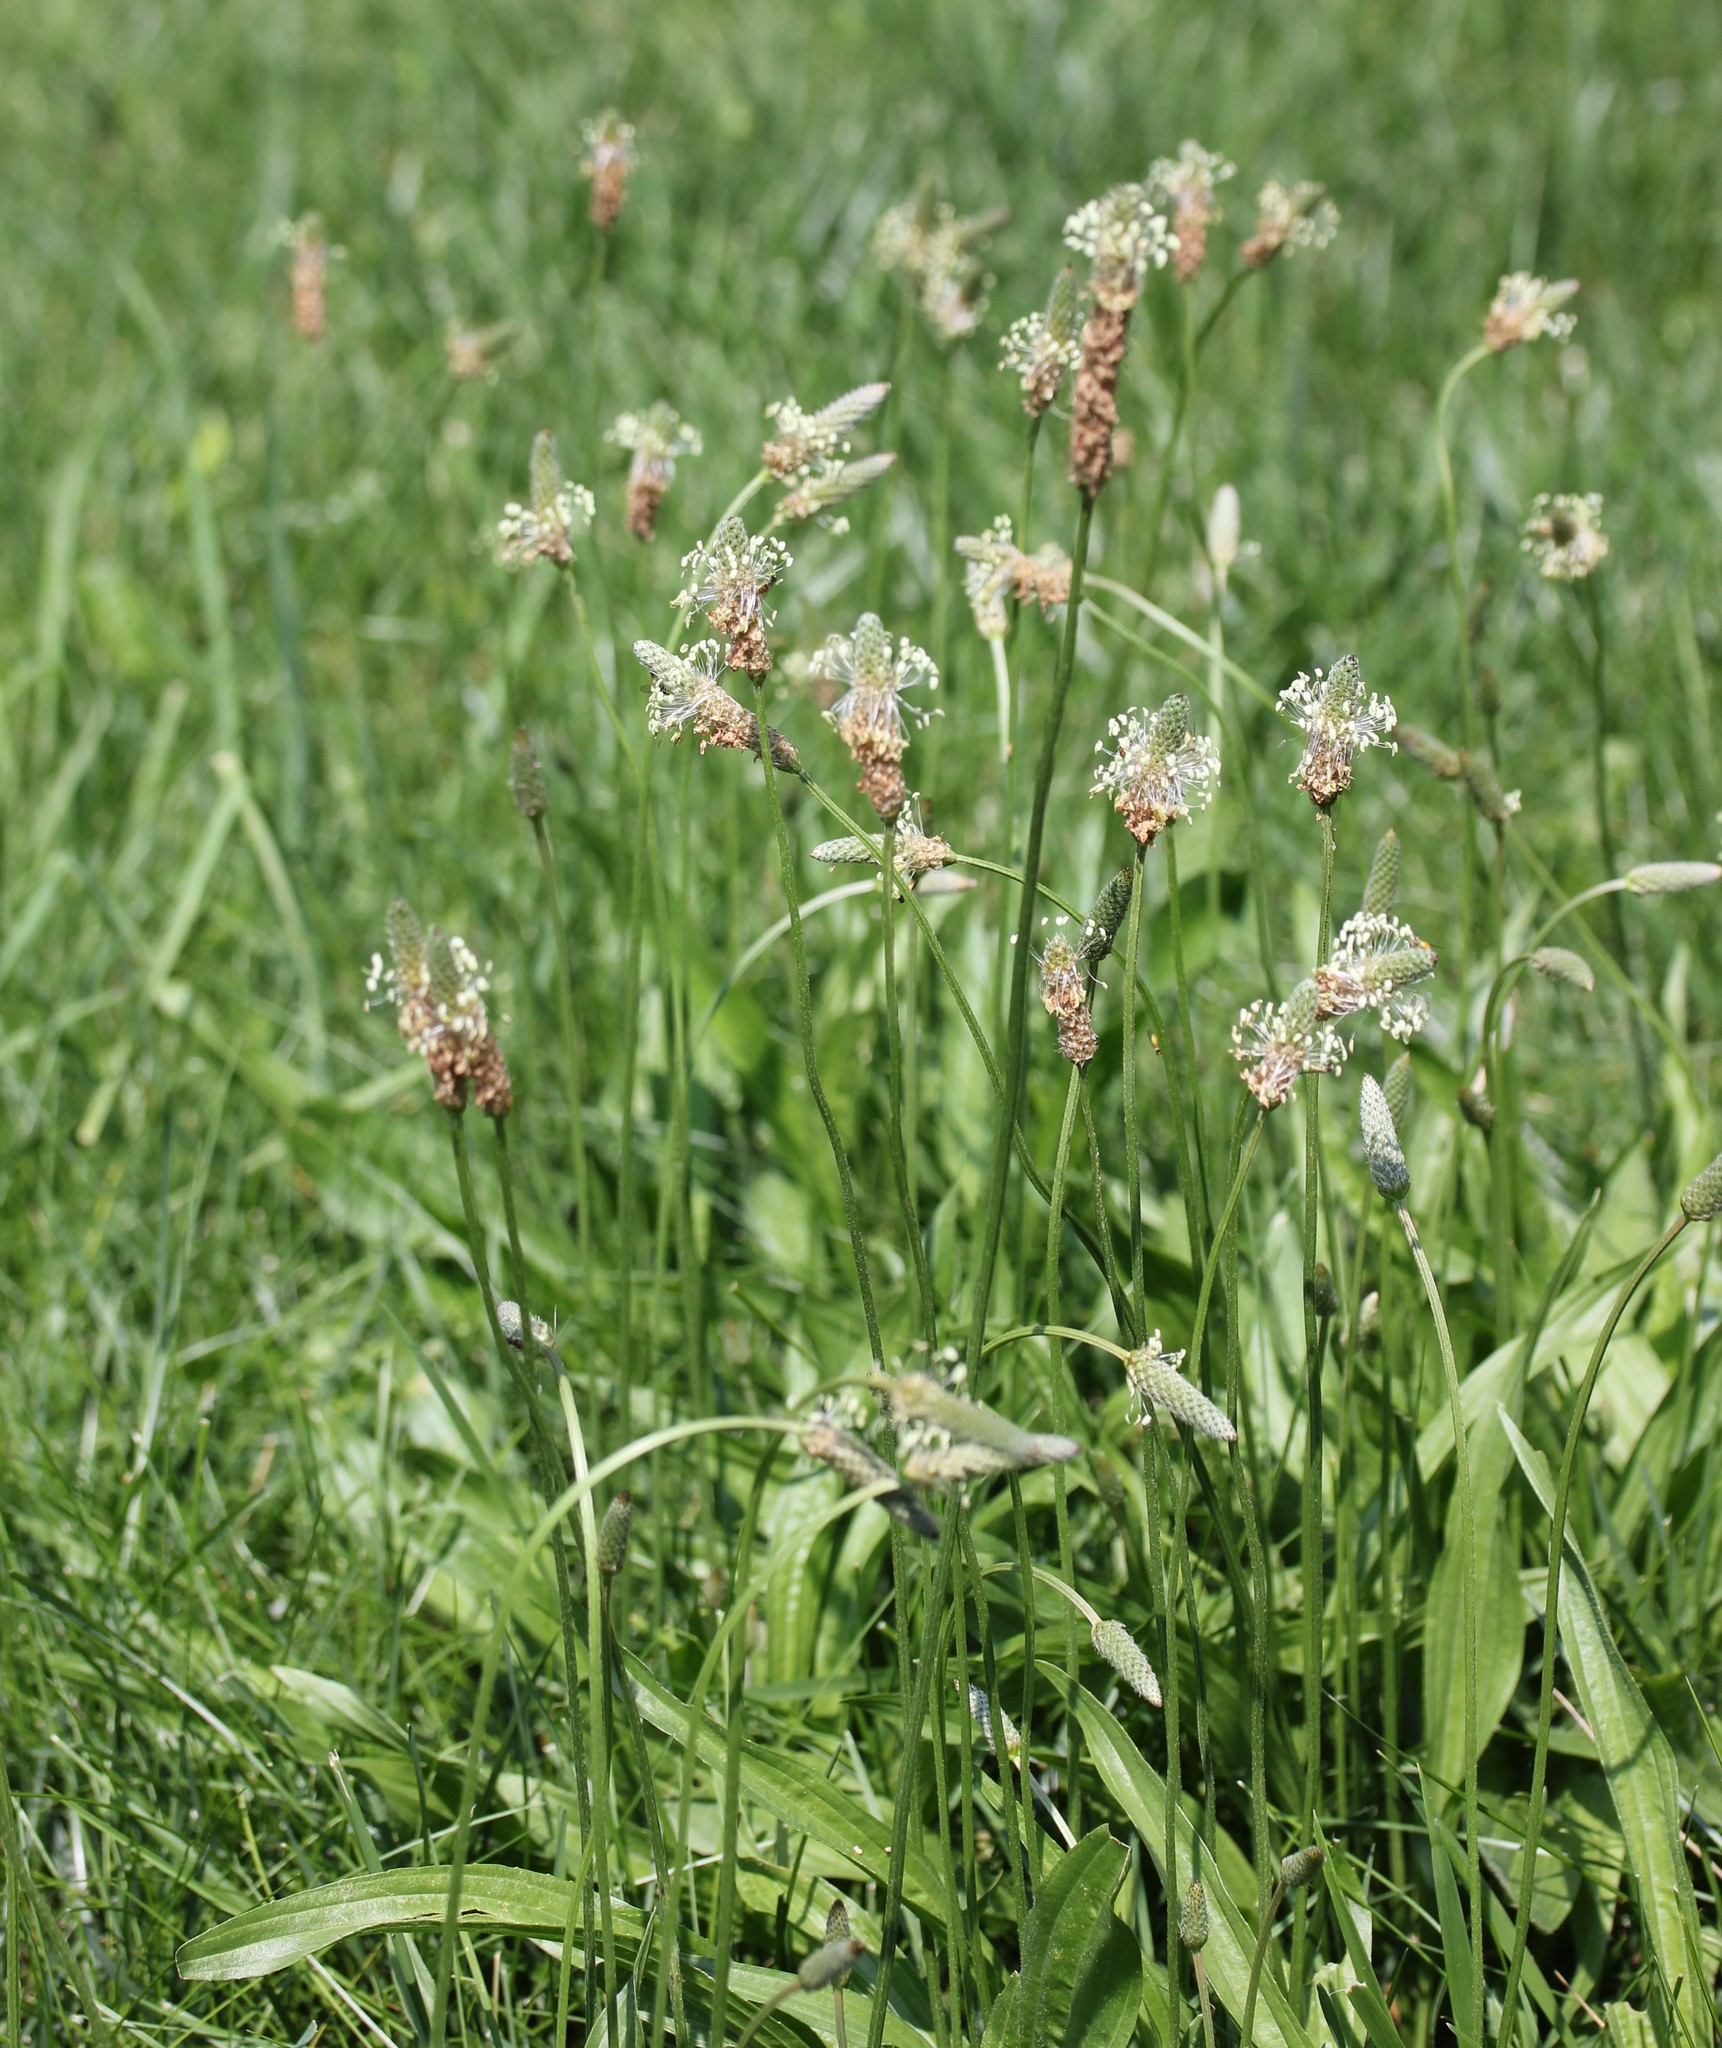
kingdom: Plantae
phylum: Tracheophyta
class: Magnoliopsida
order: Lamiales
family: Plantaginaceae
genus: Plantago
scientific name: Plantago lanceolata
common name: Ribwort plantain
